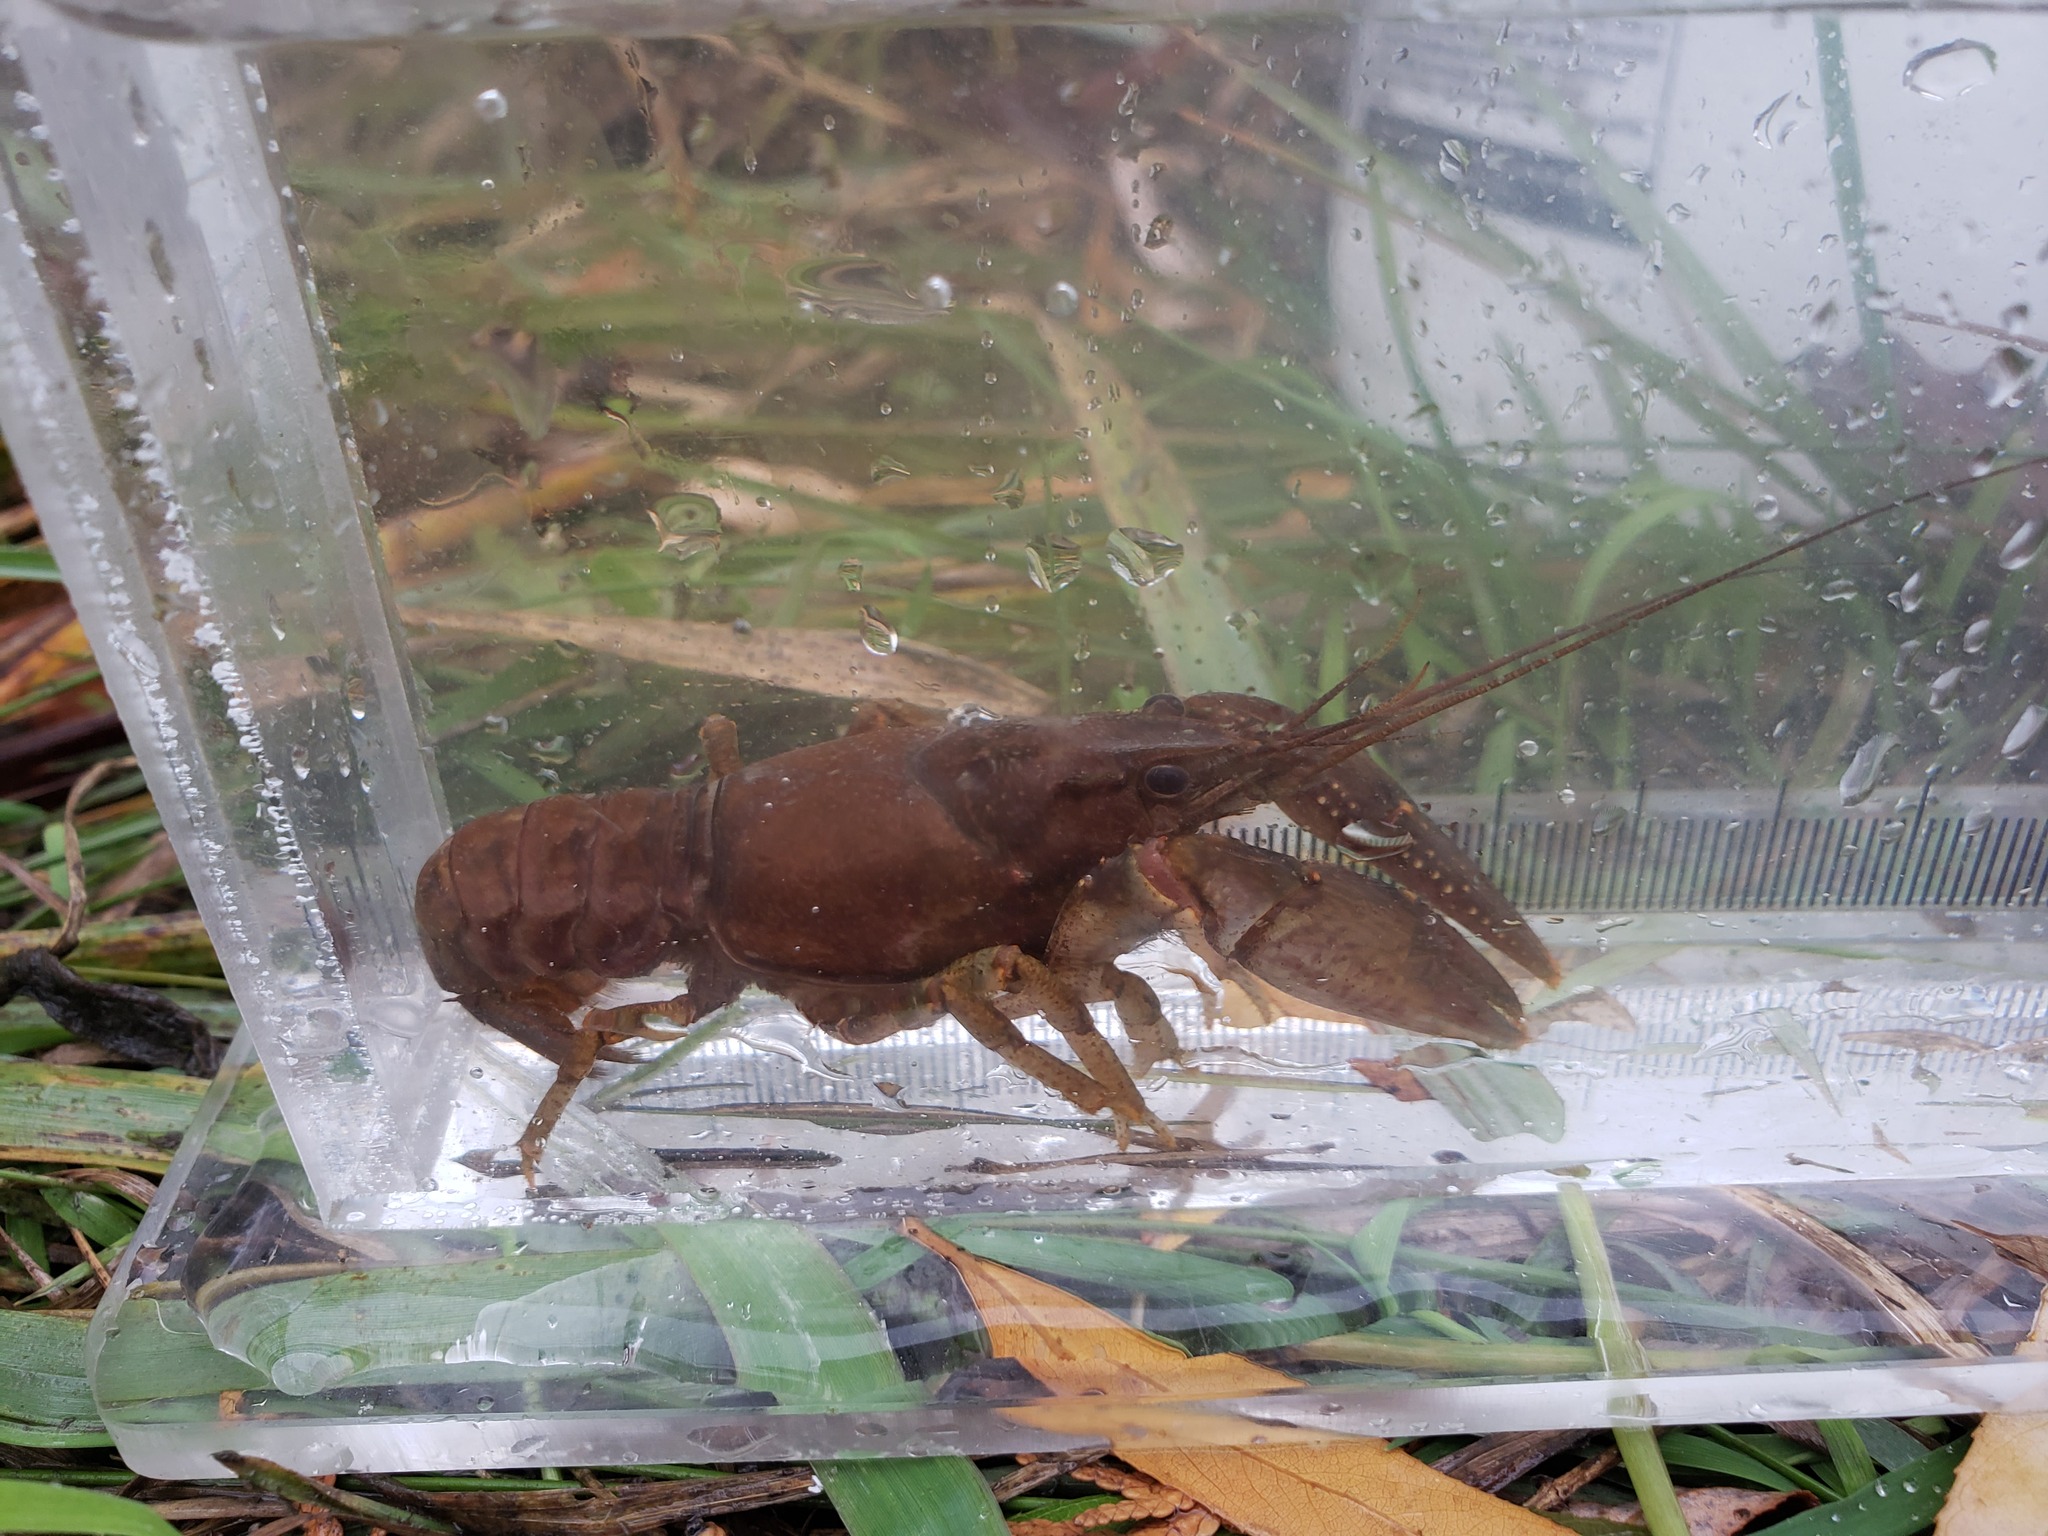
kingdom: Animalia
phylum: Arthropoda
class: Malacostraca
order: Decapoda
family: Cambaridae
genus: Faxonius
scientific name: Faxonius virilis
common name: Virile crayfish
